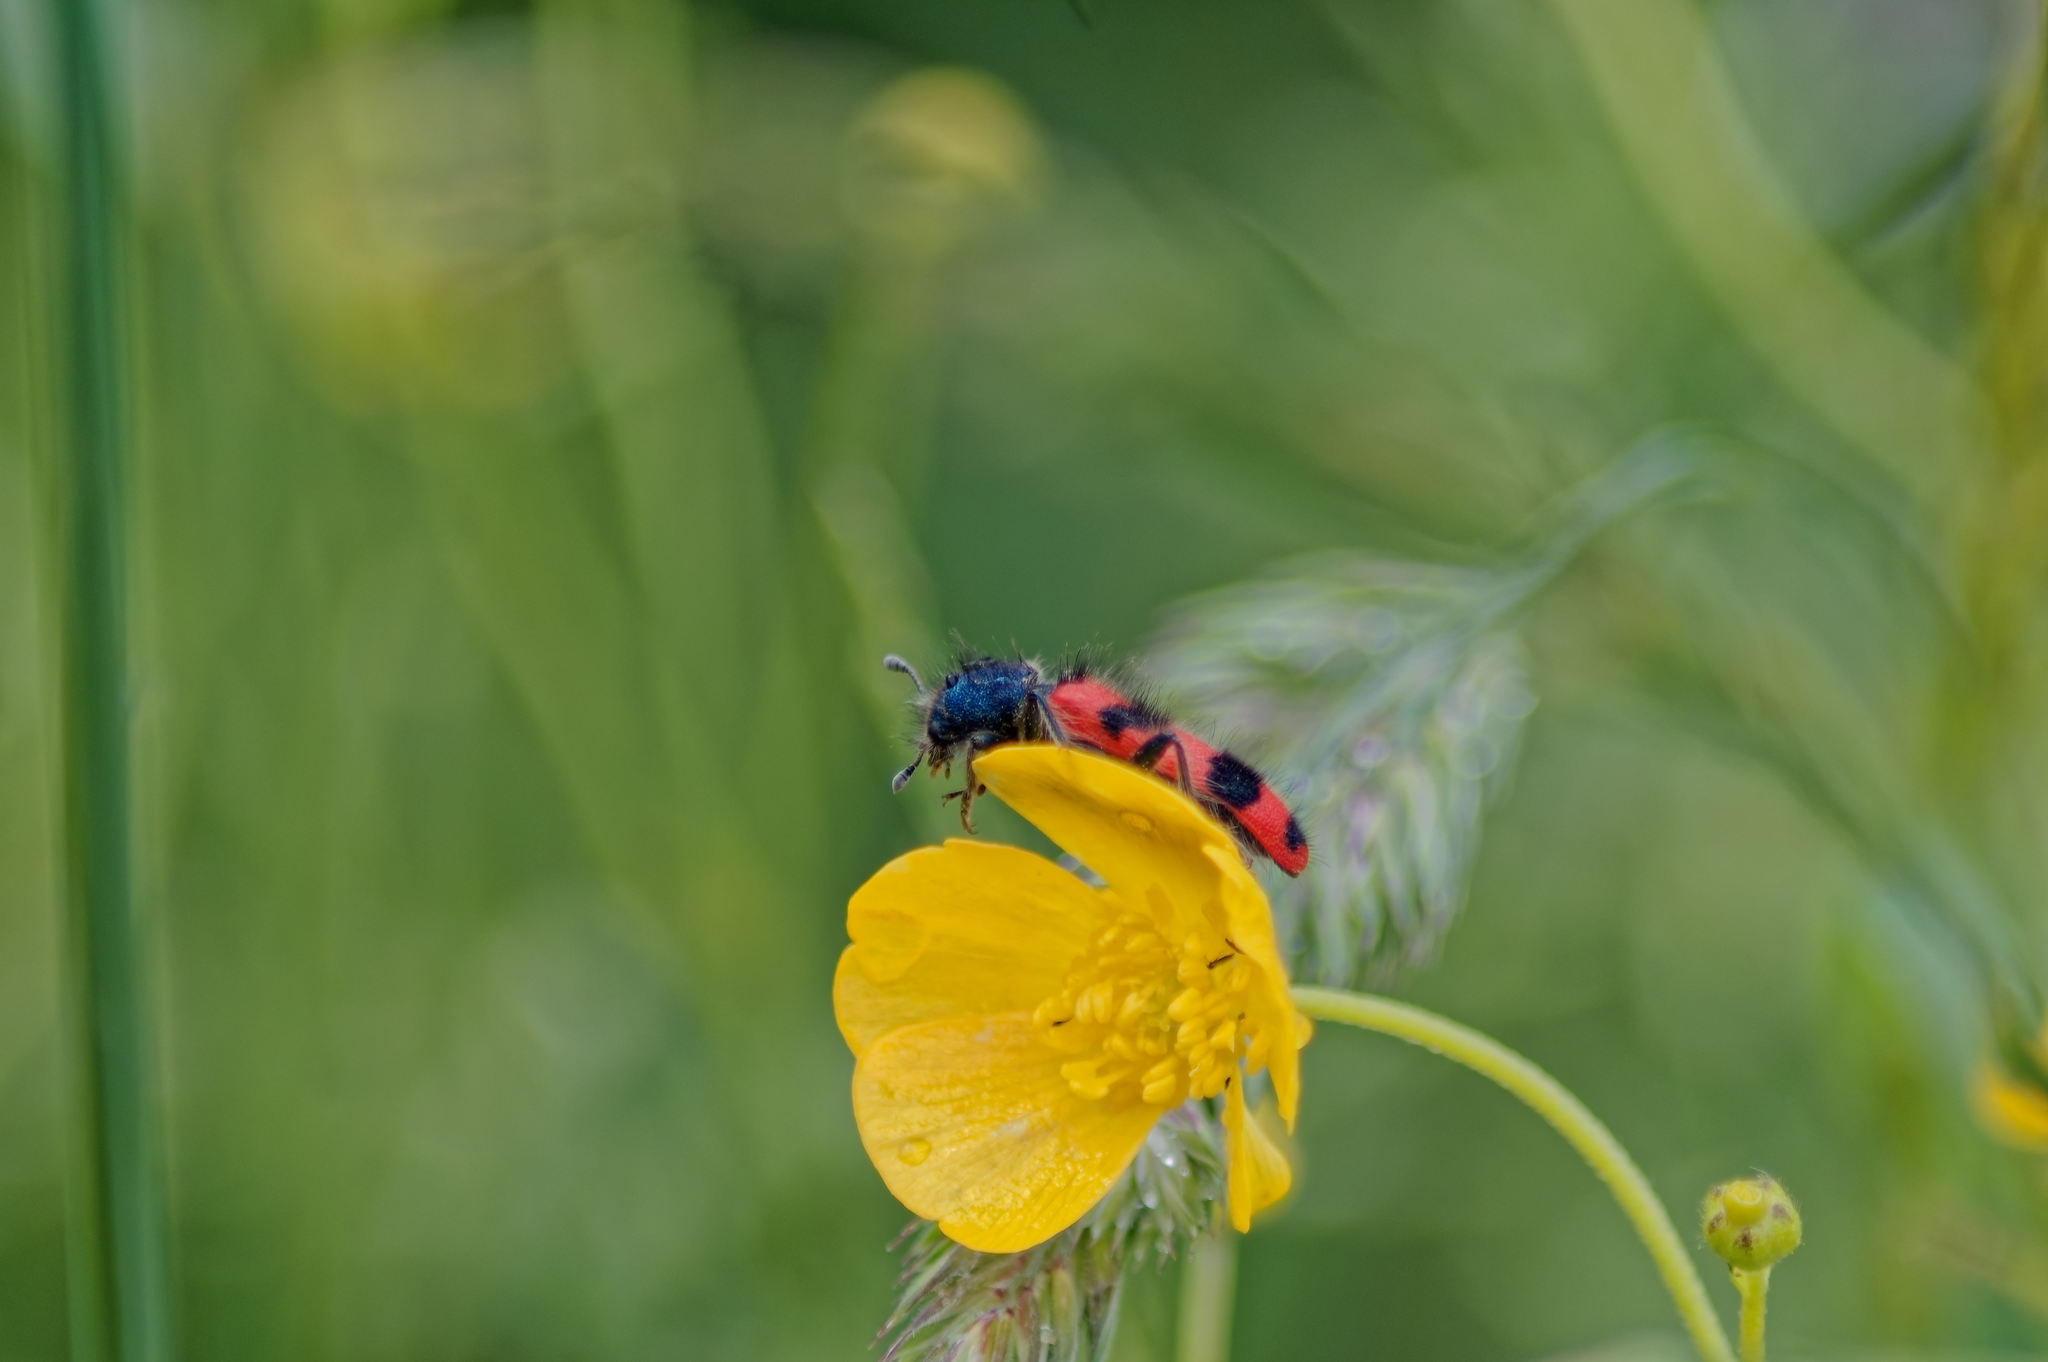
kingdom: Animalia
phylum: Arthropoda
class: Insecta
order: Coleoptera
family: Cleridae
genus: Trichodes
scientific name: Trichodes alvearius
